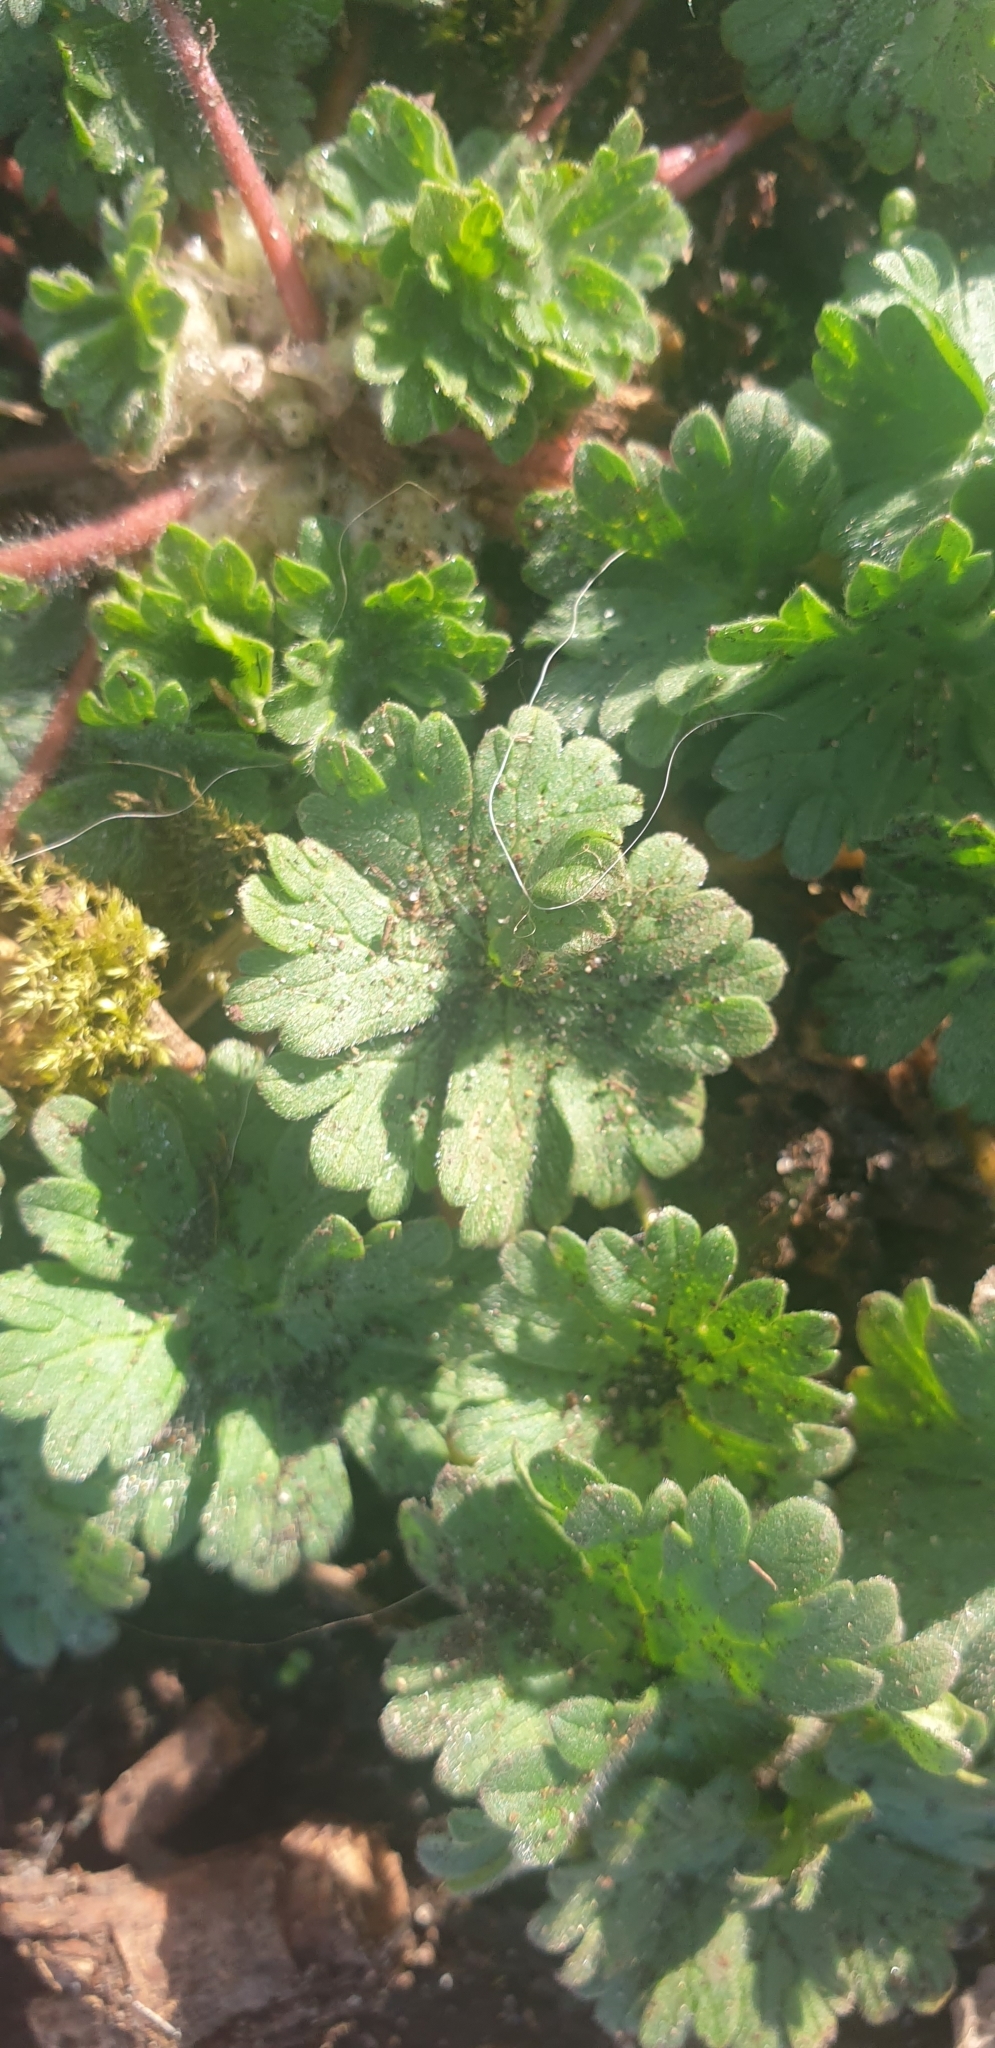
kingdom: Plantae
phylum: Tracheophyta
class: Magnoliopsida
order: Geraniales
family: Geraniaceae
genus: Geranium
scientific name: Geranium molle
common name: Dove's-foot crane's-bill
